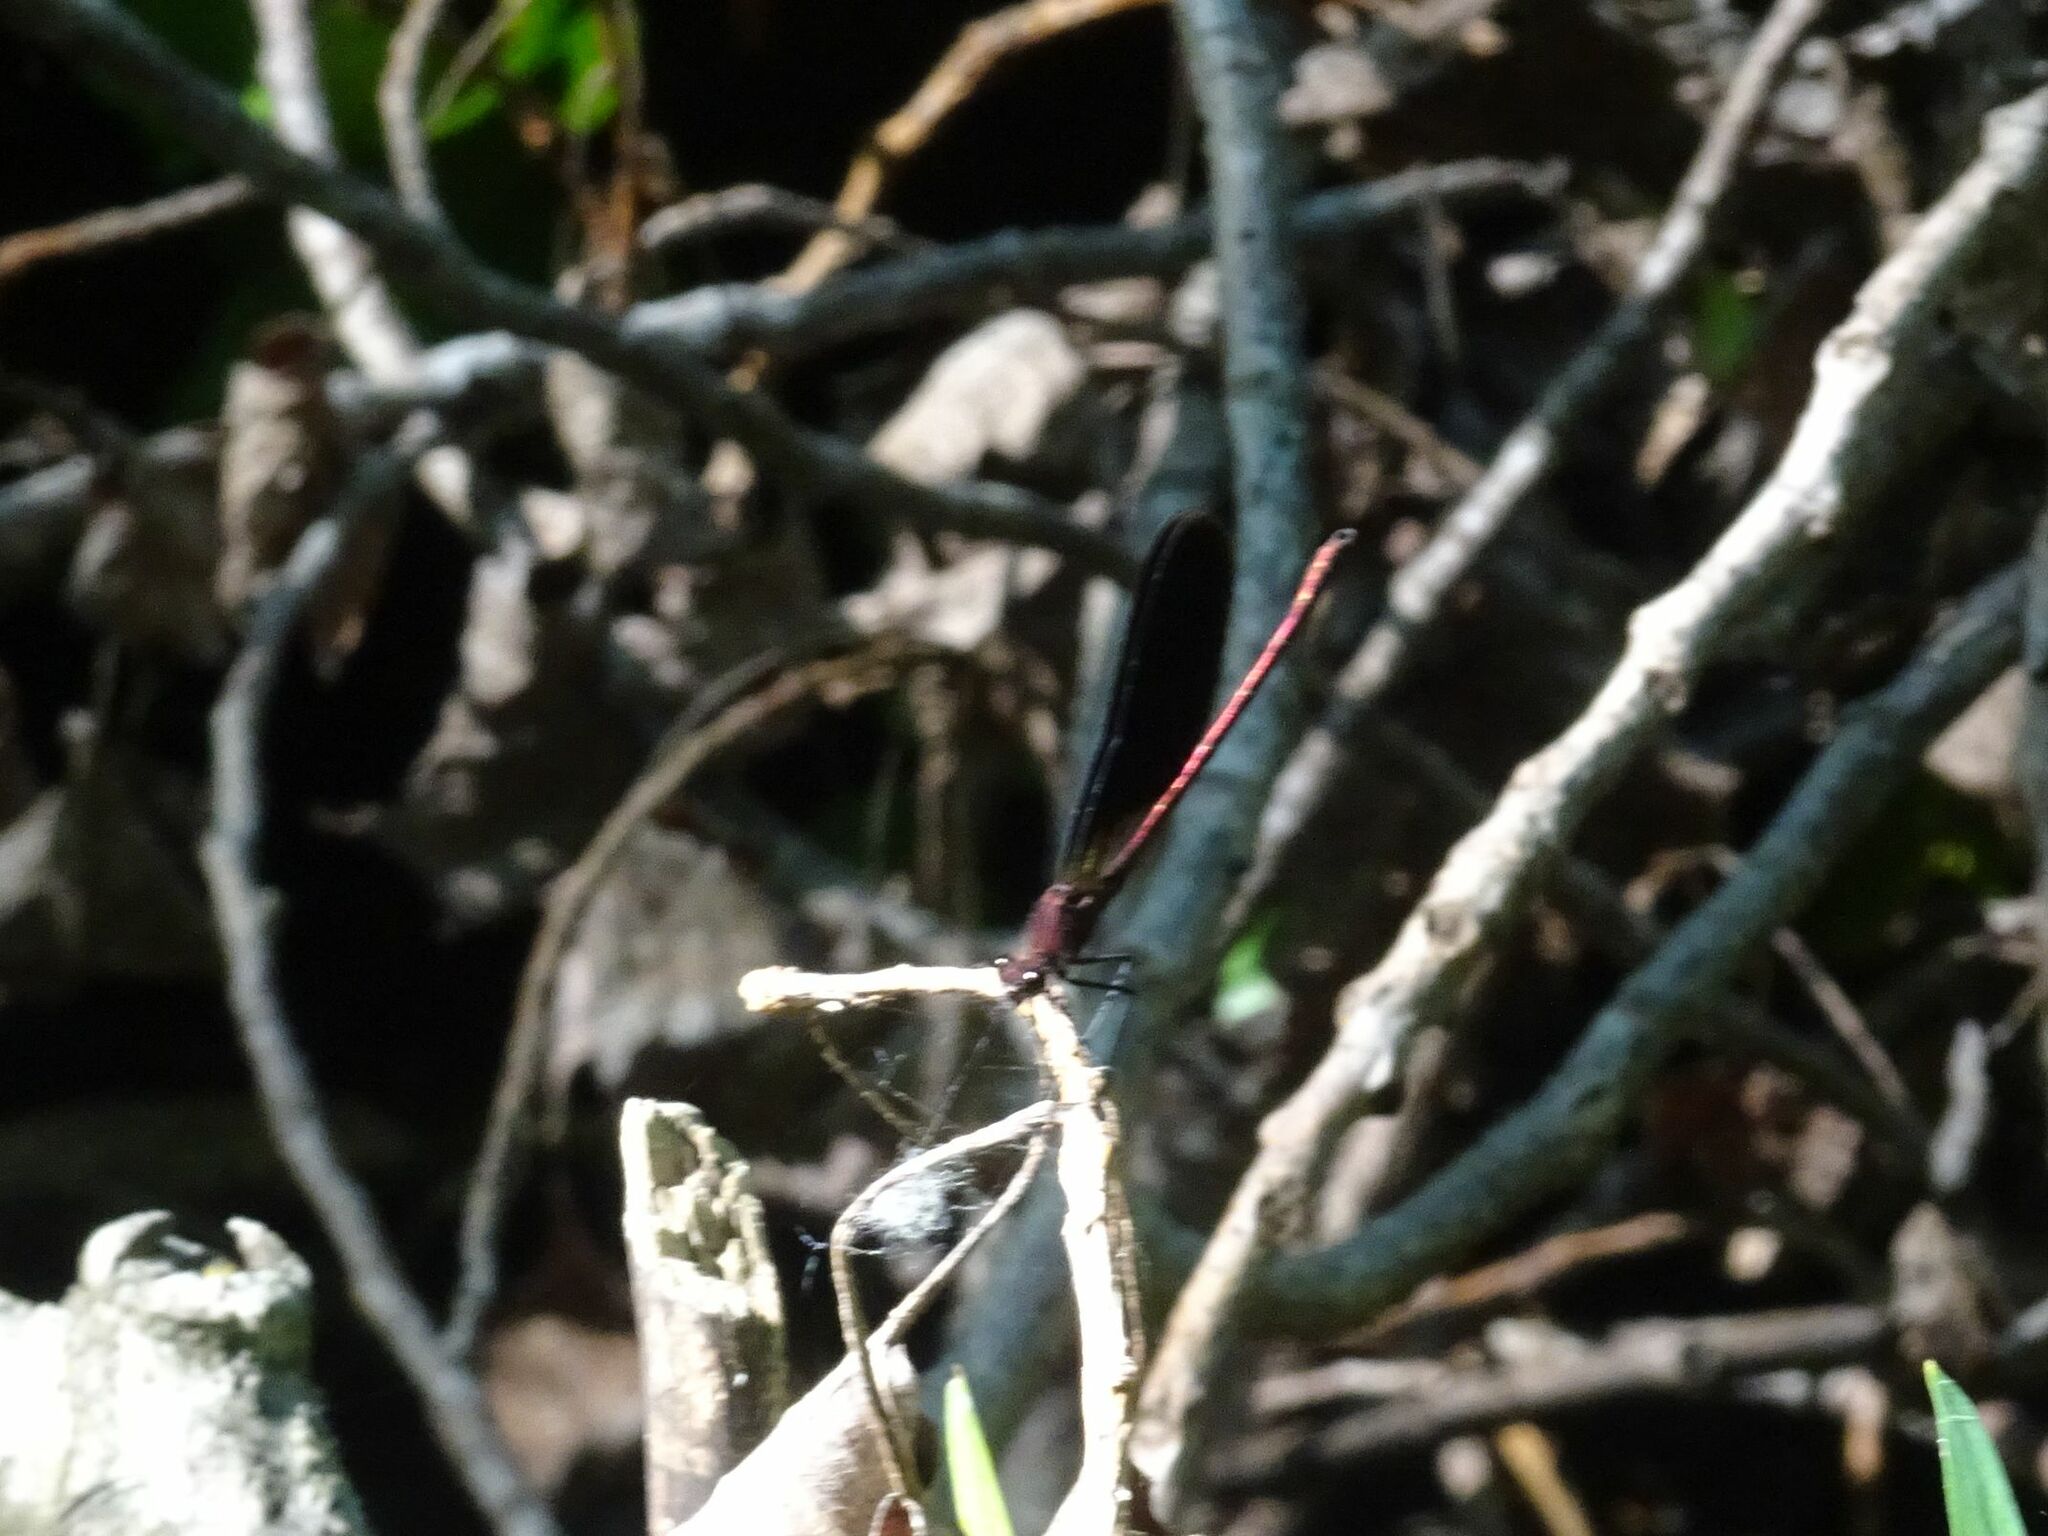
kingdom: Animalia
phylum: Arthropoda
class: Insecta
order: Odonata
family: Calopterygidae
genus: Calopteryx
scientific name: Calopteryx haemorrhoidalis
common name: Copper demoiselle
